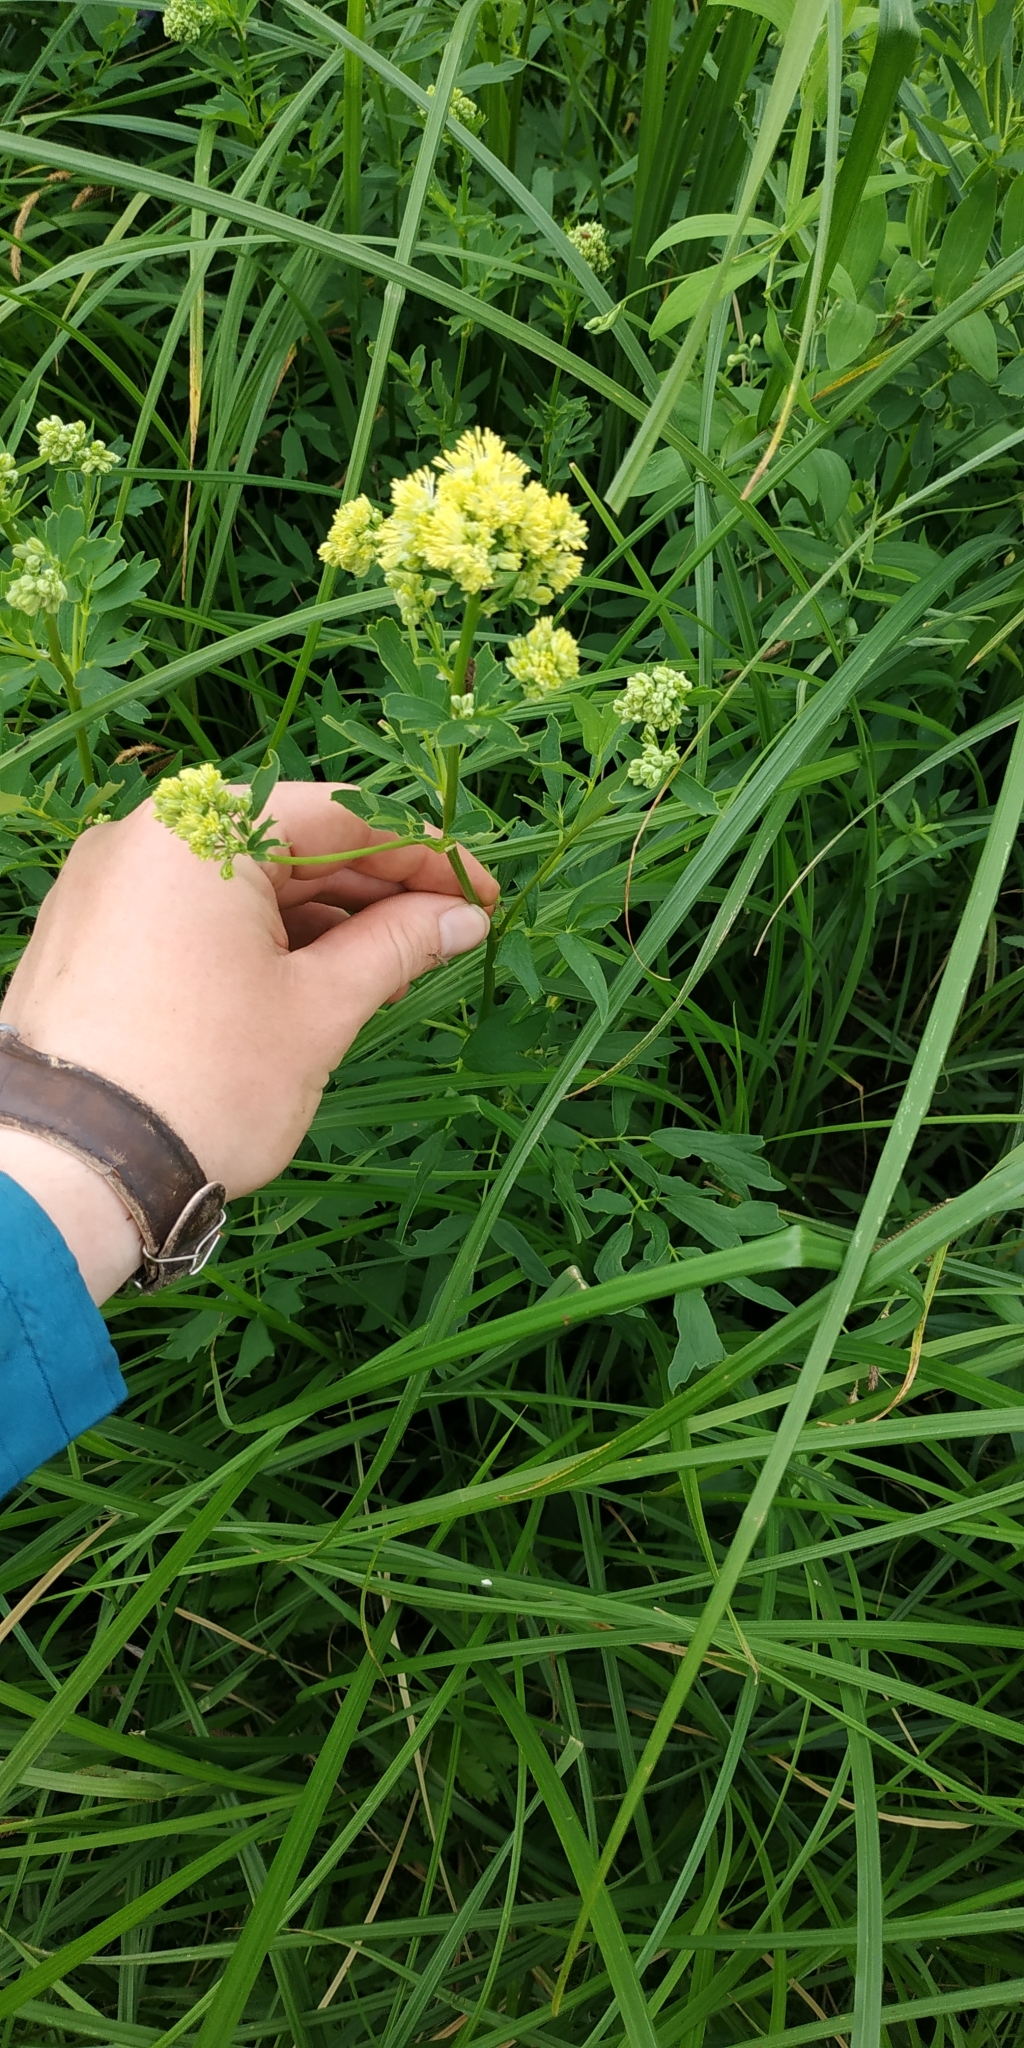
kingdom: Plantae
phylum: Tracheophyta
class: Magnoliopsida
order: Ranunculales
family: Ranunculaceae
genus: Thalictrum
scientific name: Thalictrum flavum
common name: Common meadow-rue
